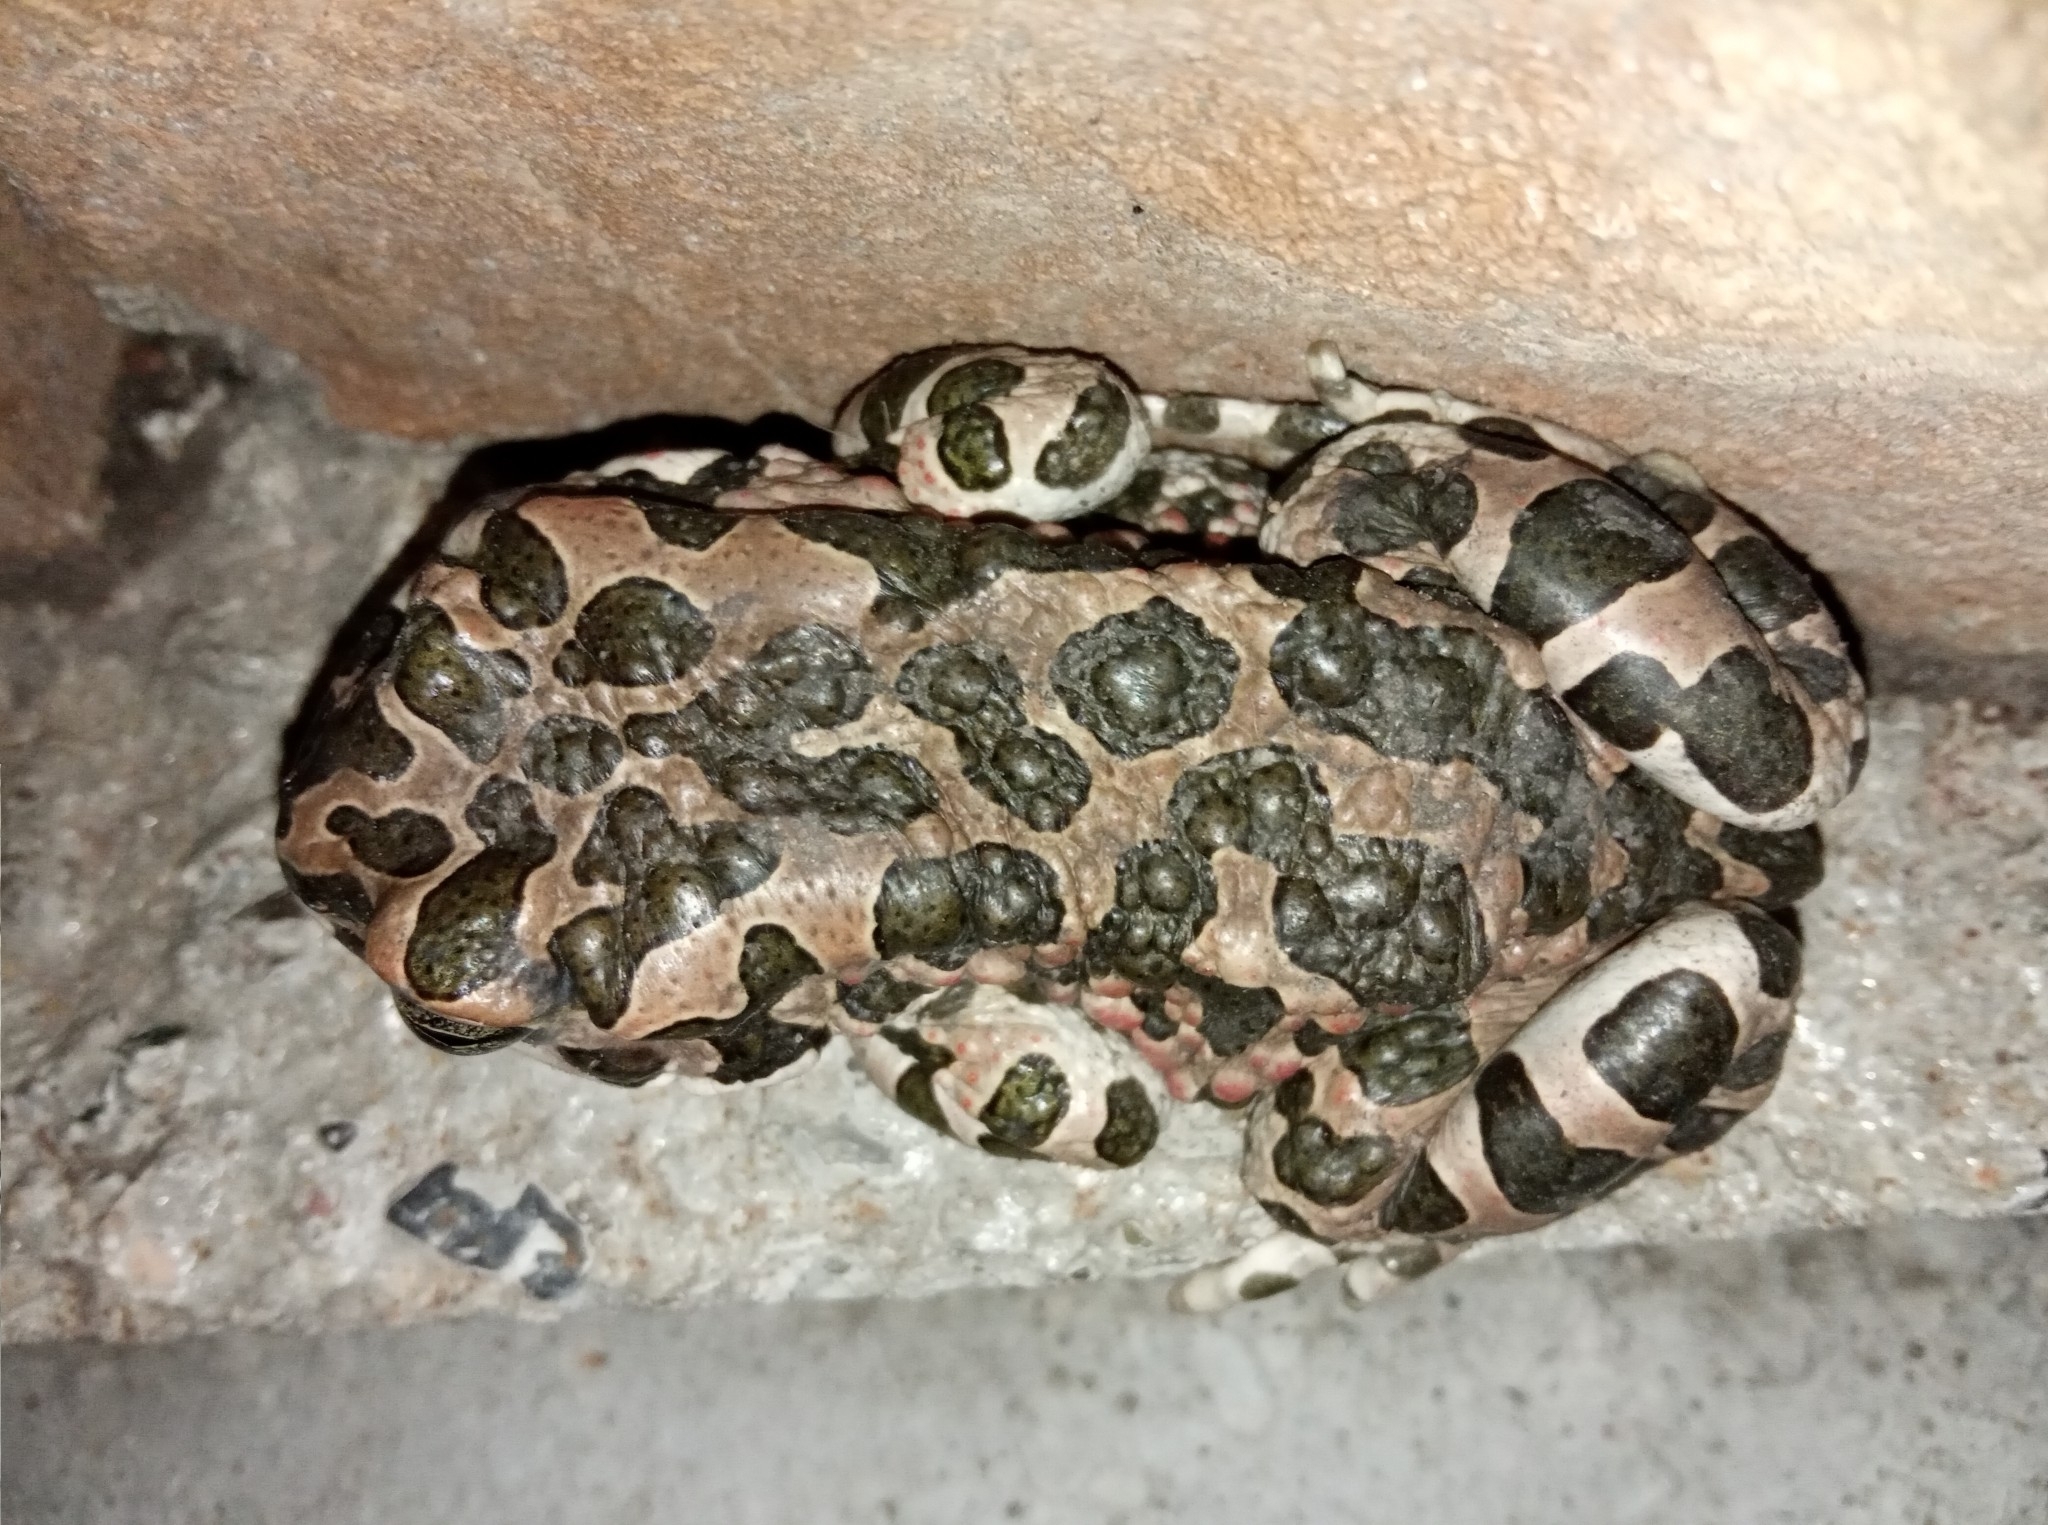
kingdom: Animalia
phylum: Chordata
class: Amphibia
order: Anura
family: Bufonidae
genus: Bufotes
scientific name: Bufotes viridis
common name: European green toad
